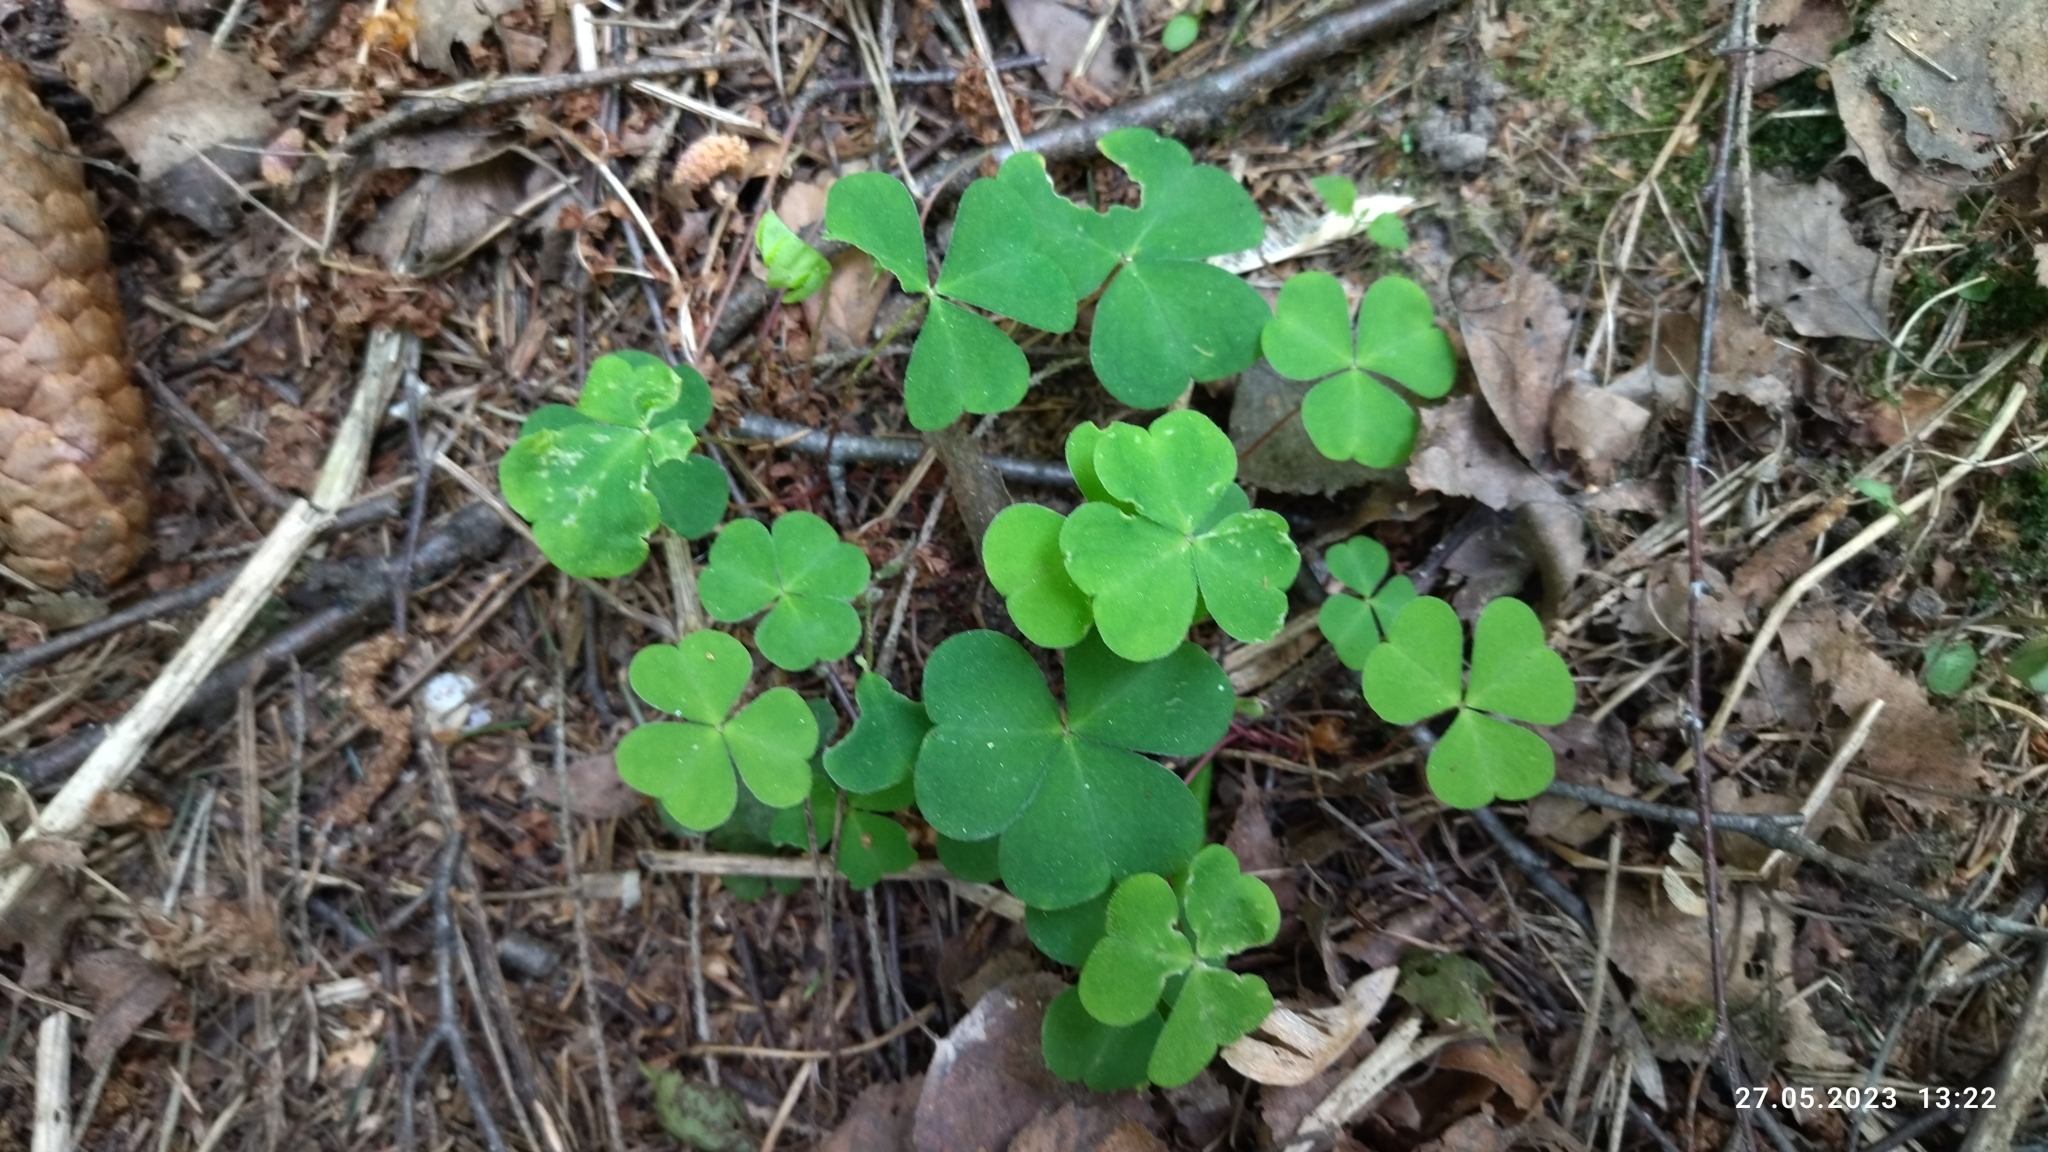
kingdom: Plantae
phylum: Tracheophyta
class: Magnoliopsida
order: Oxalidales
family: Oxalidaceae
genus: Oxalis
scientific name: Oxalis acetosella
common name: Wood-sorrel
